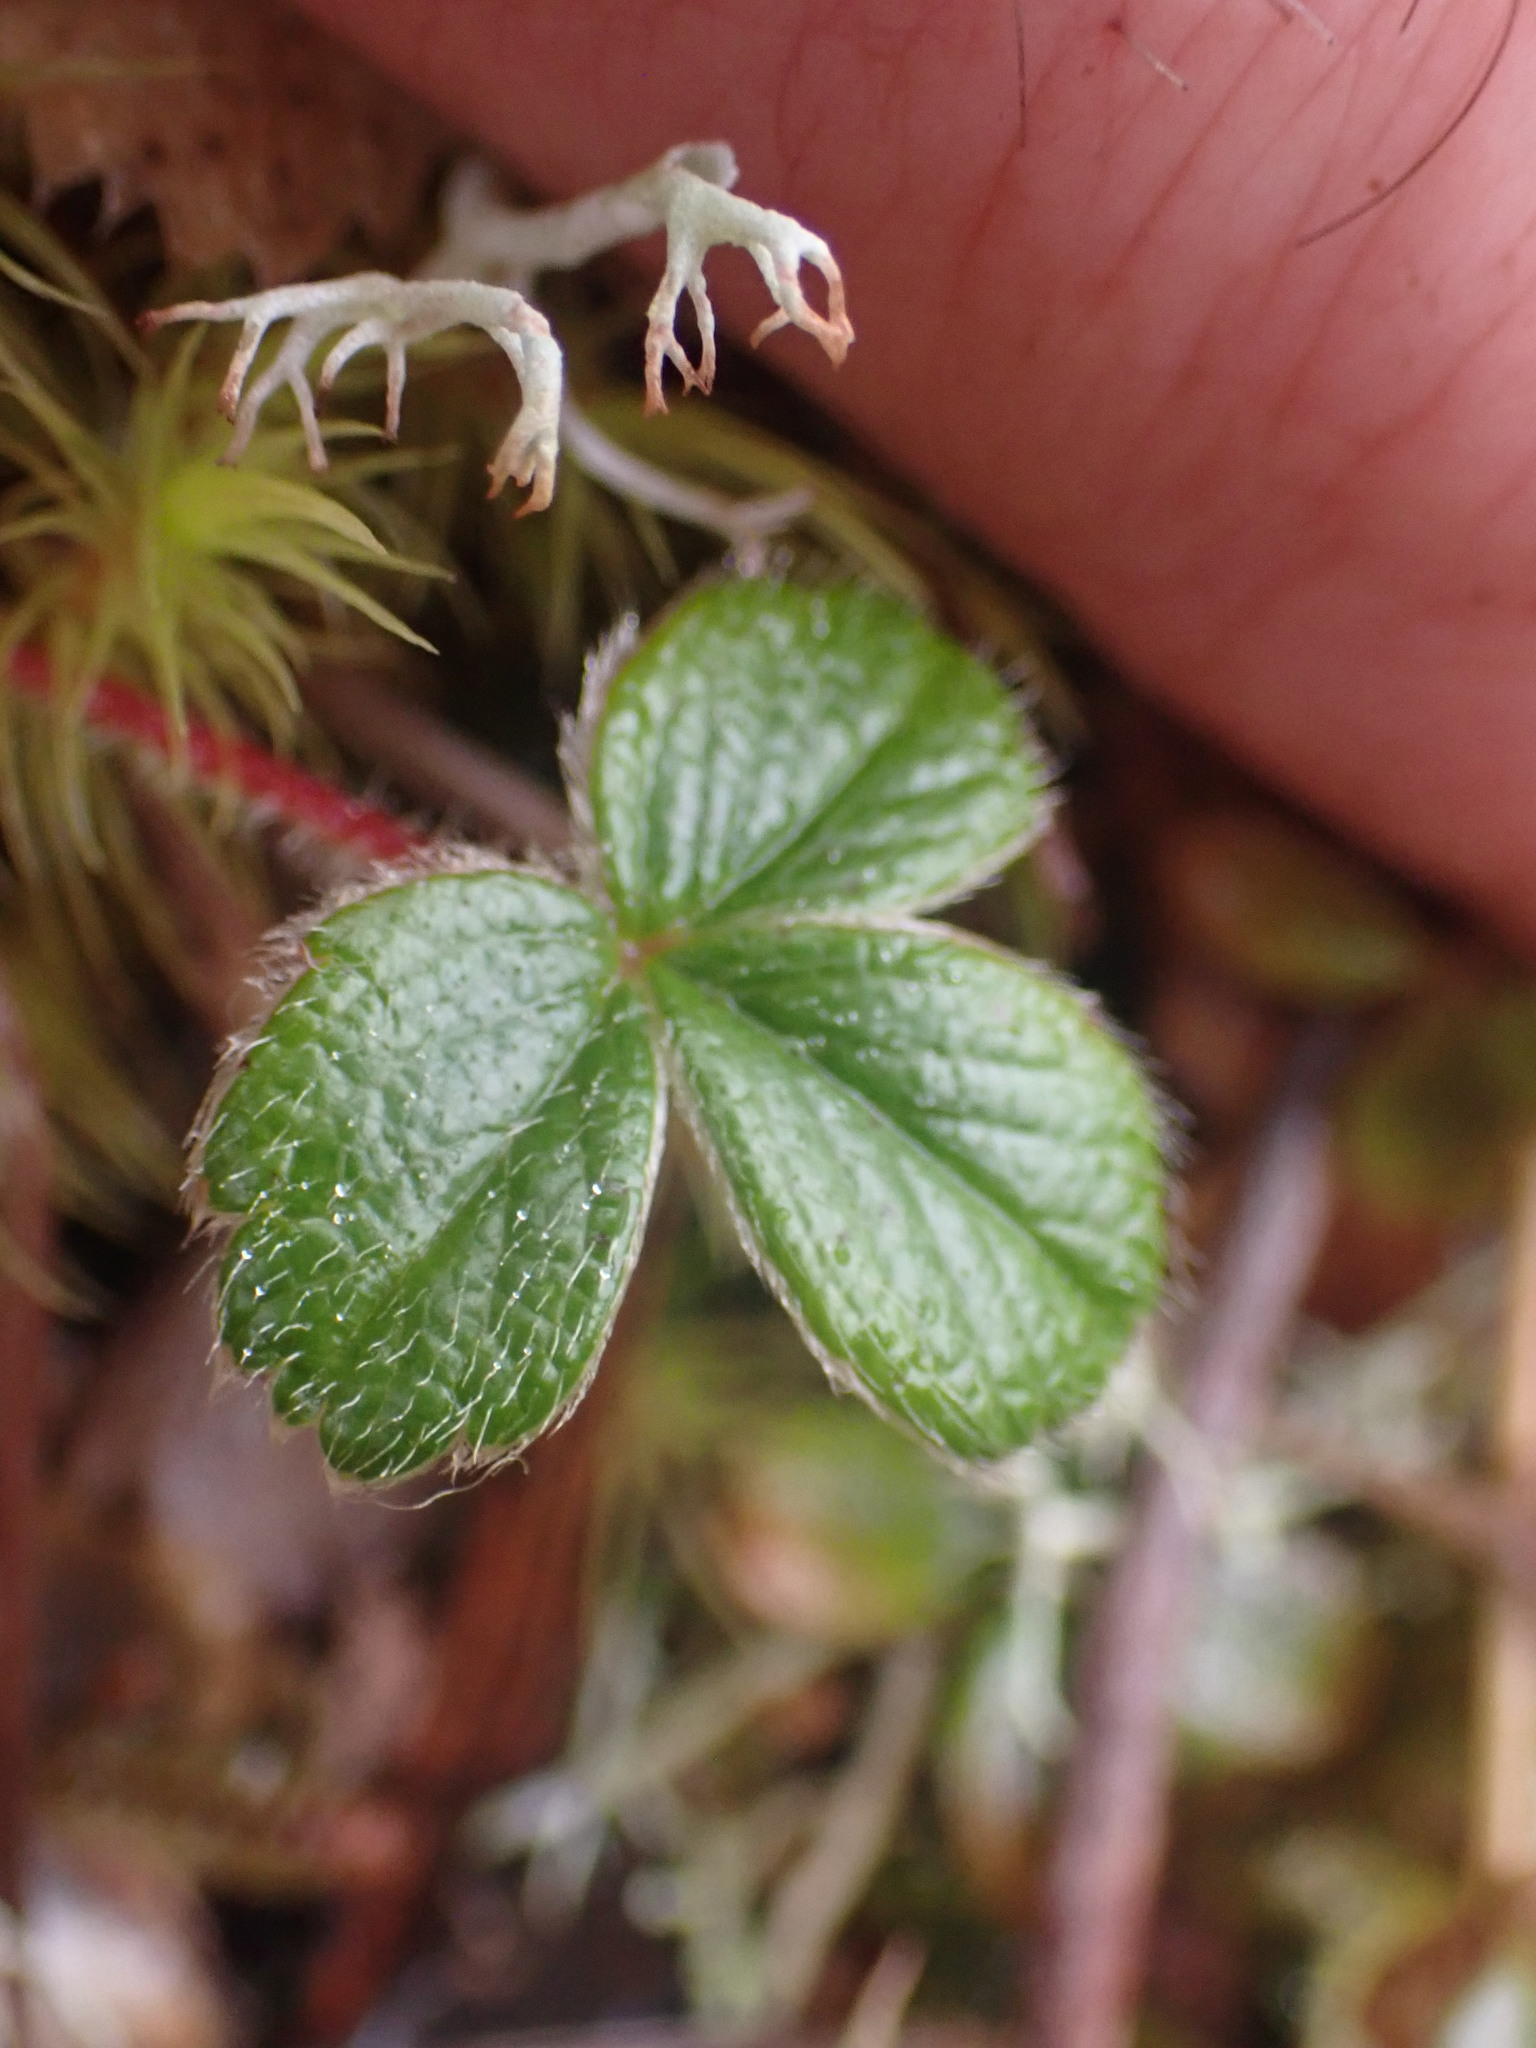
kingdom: Plantae
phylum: Tracheophyta
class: Magnoliopsida
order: Rosales
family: Rosaceae
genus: Fragaria
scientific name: Fragaria chiloensis
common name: Beach strawberry
